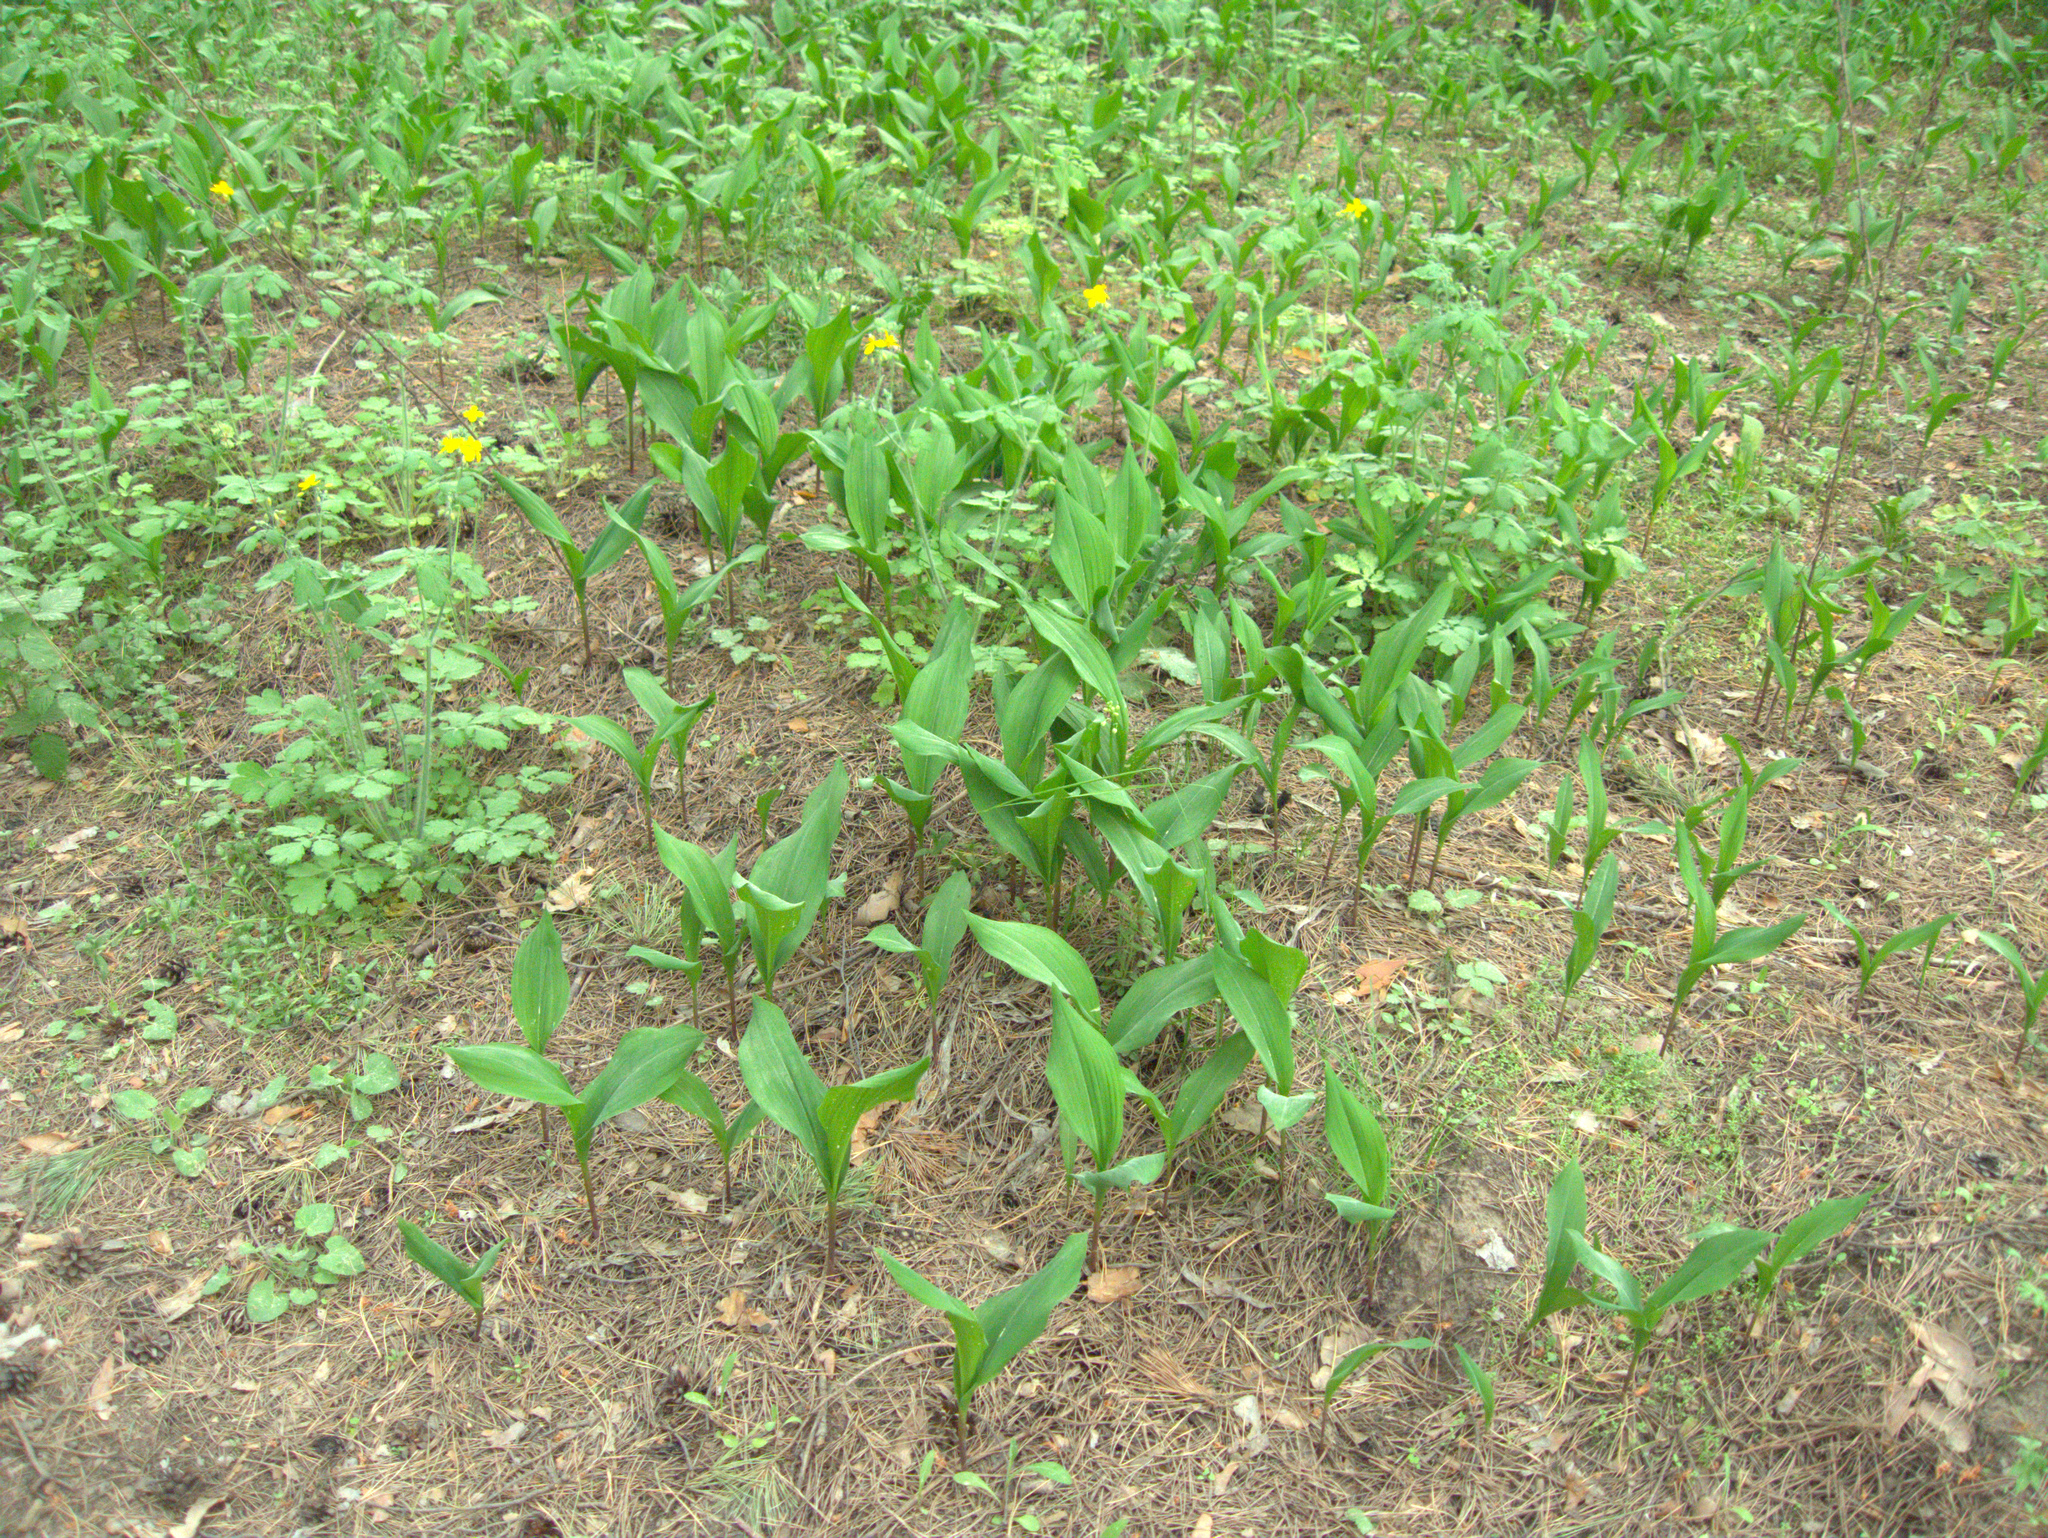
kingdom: Plantae
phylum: Tracheophyta
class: Liliopsida
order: Asparagales
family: Asparagaceae
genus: Convallaria
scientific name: Convallaria majalis
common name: Lily-of-the-valley
